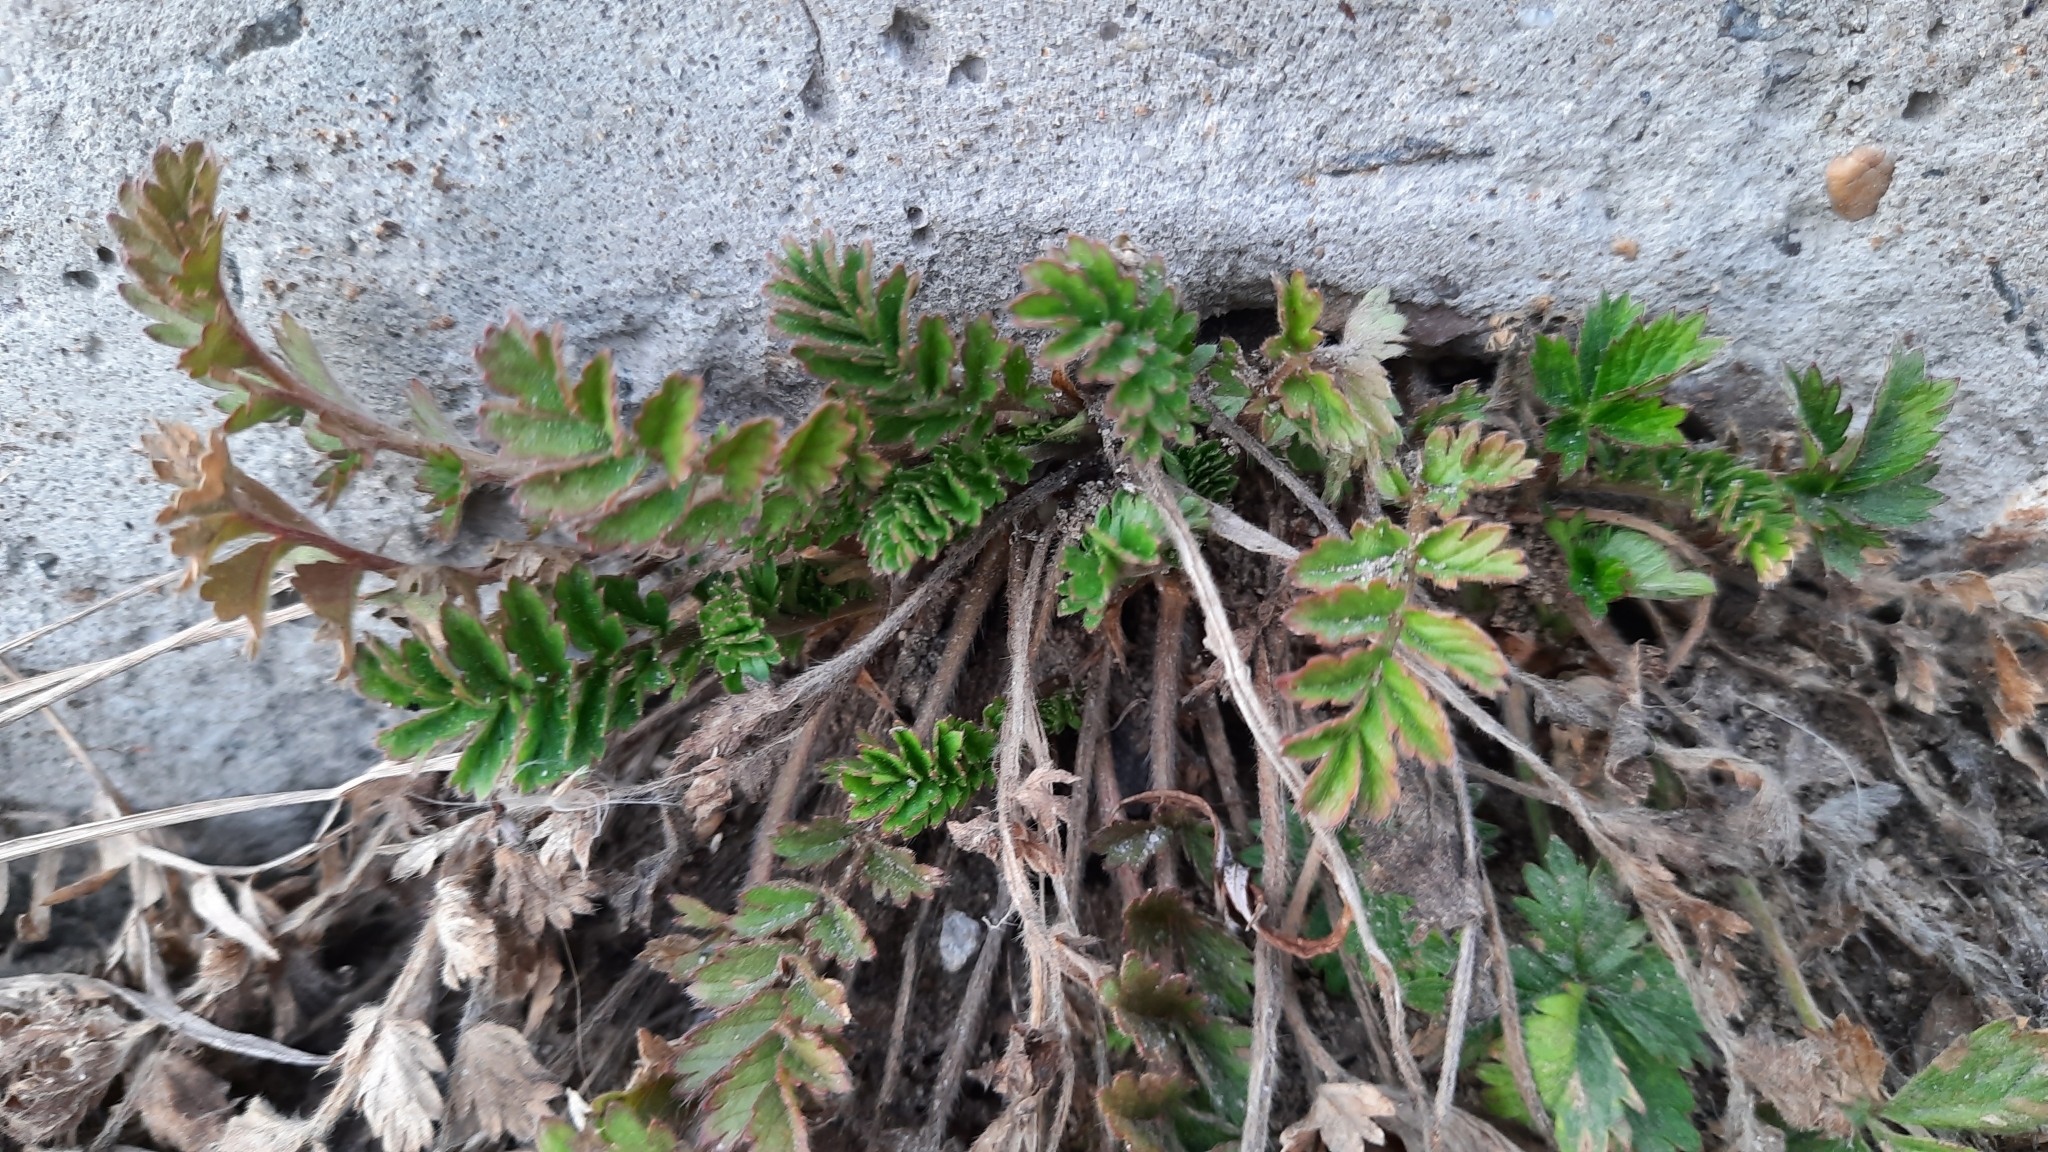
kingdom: Plantae
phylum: Tracheophyta
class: Magnoliopsida
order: Rosales
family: Rosaceae
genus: Argentina
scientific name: Argentina anserina
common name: Common silverweed
